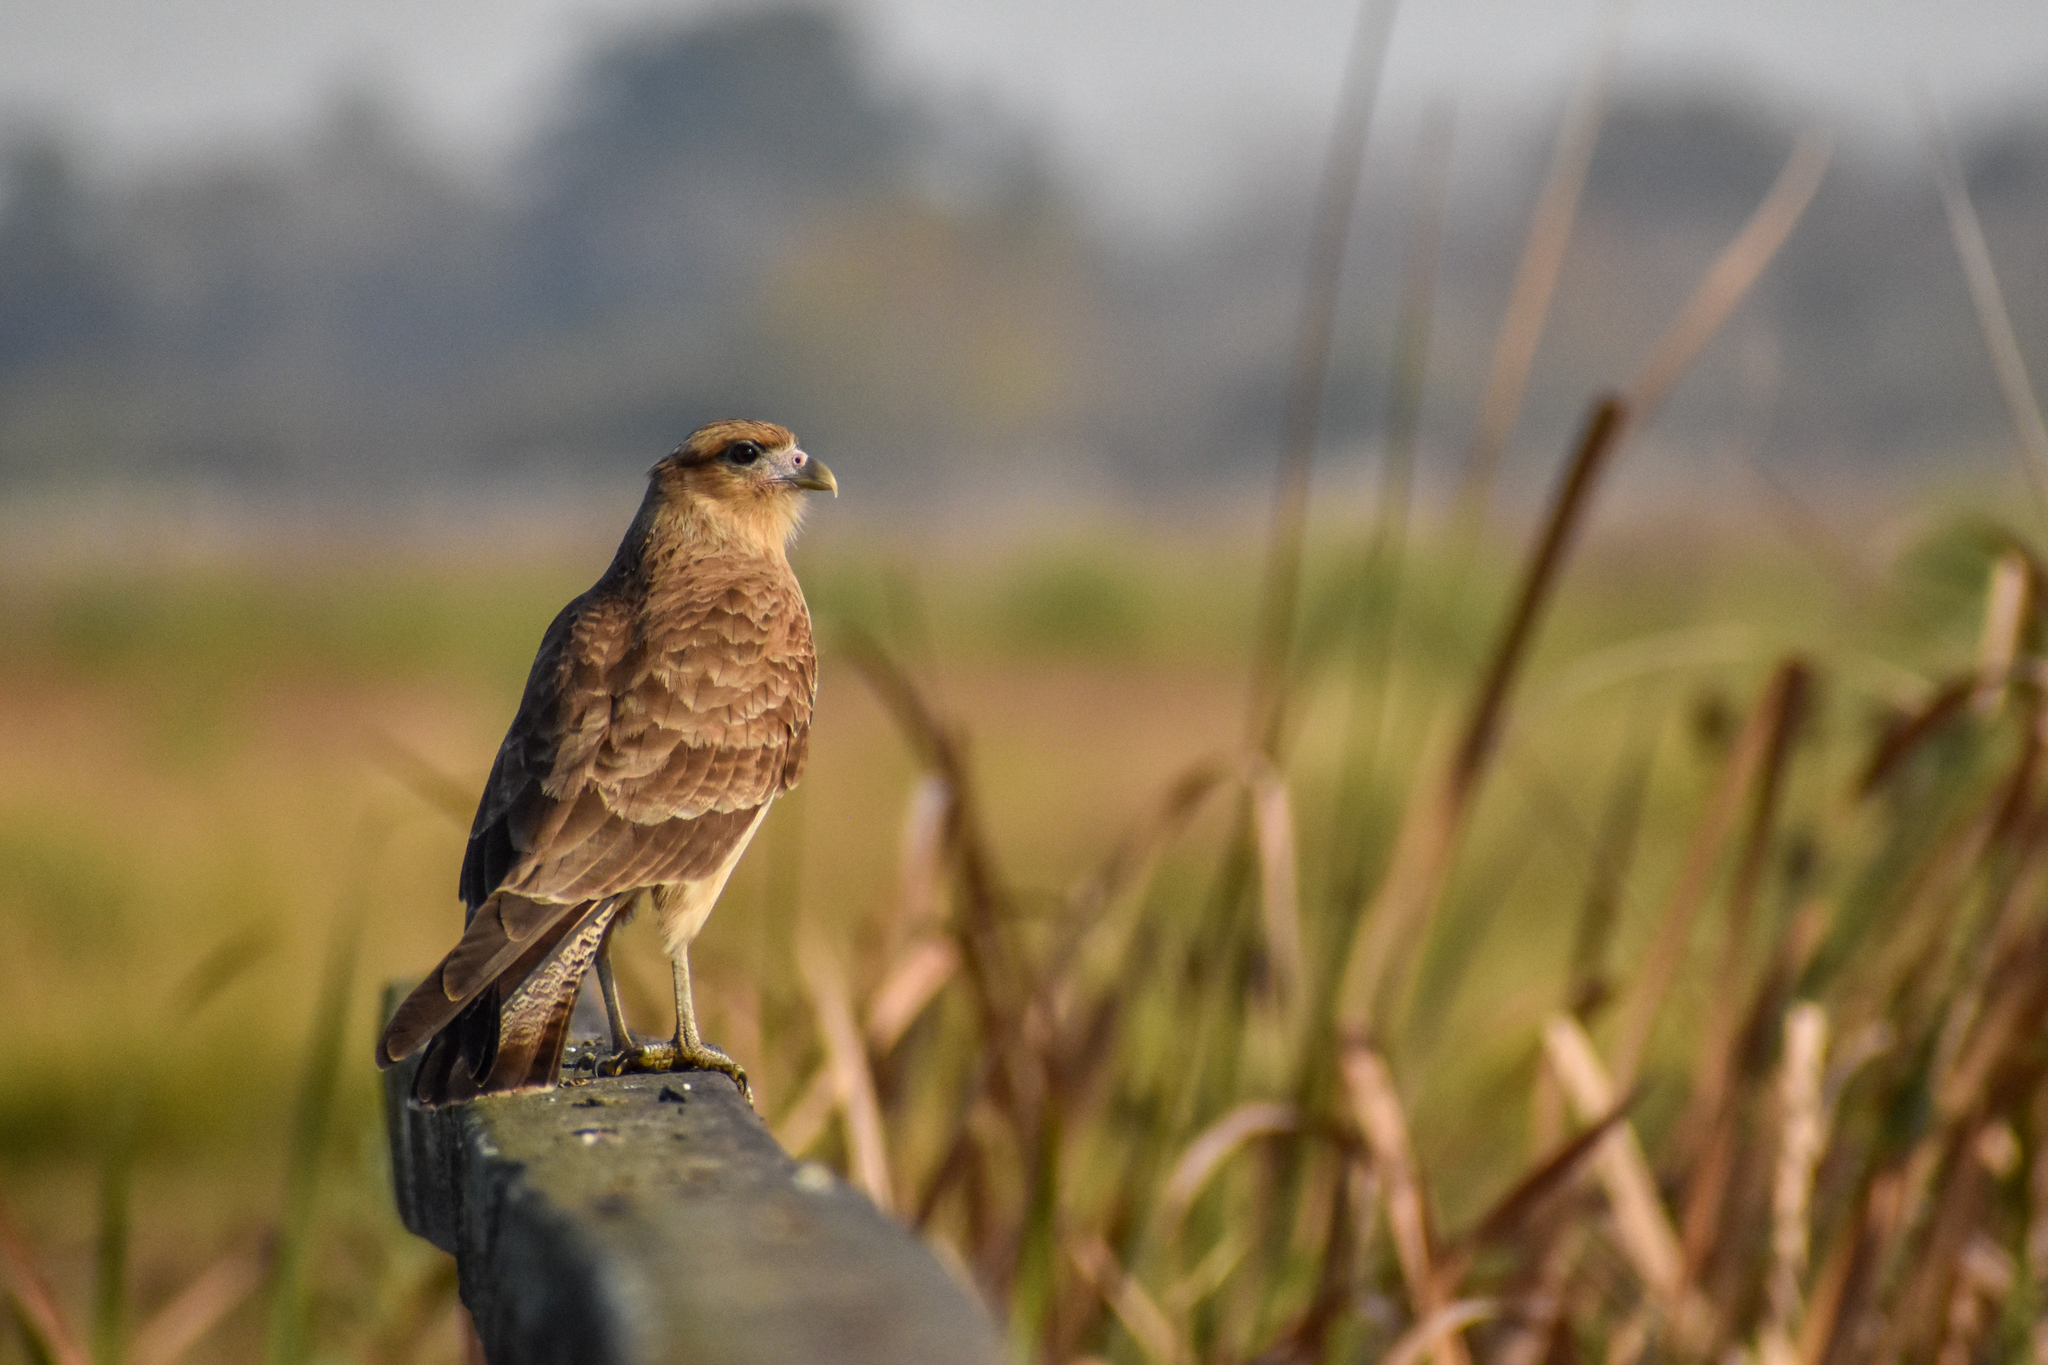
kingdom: Animalia
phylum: Chordata
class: Aves
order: Falconiformes
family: Falconidae
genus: Daptrius
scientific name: Daptrius
